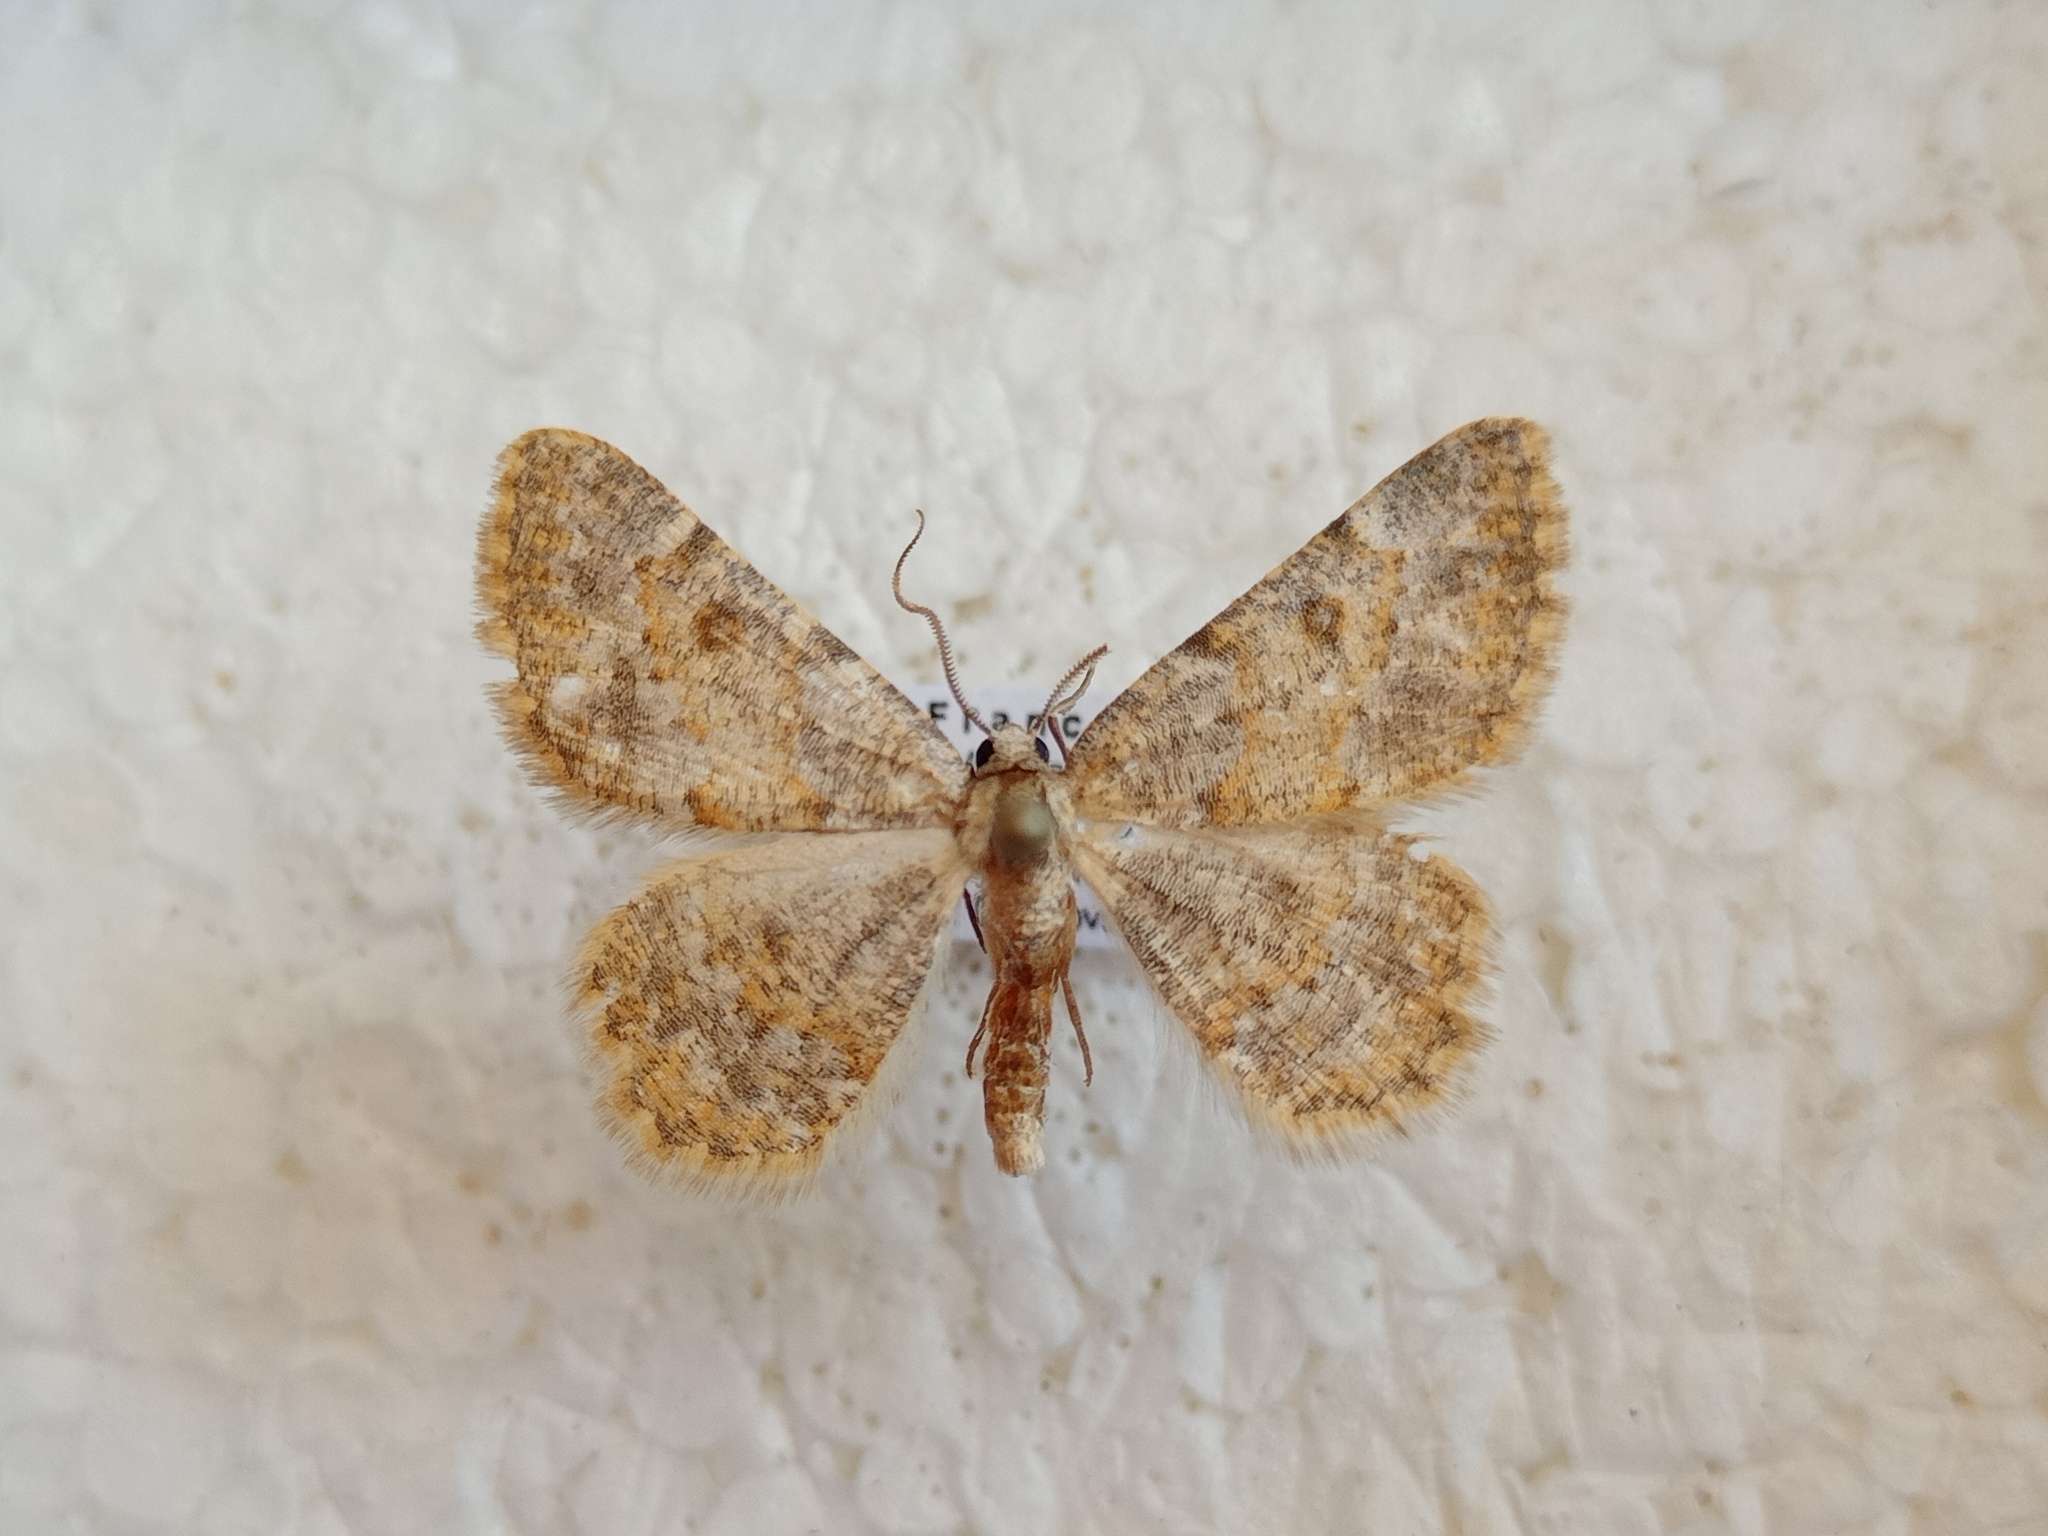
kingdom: Animalia
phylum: Arthropoda
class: Insecta
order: Lepidoptera
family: Geometridae
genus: Charissa
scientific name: Charissa mucidaria
